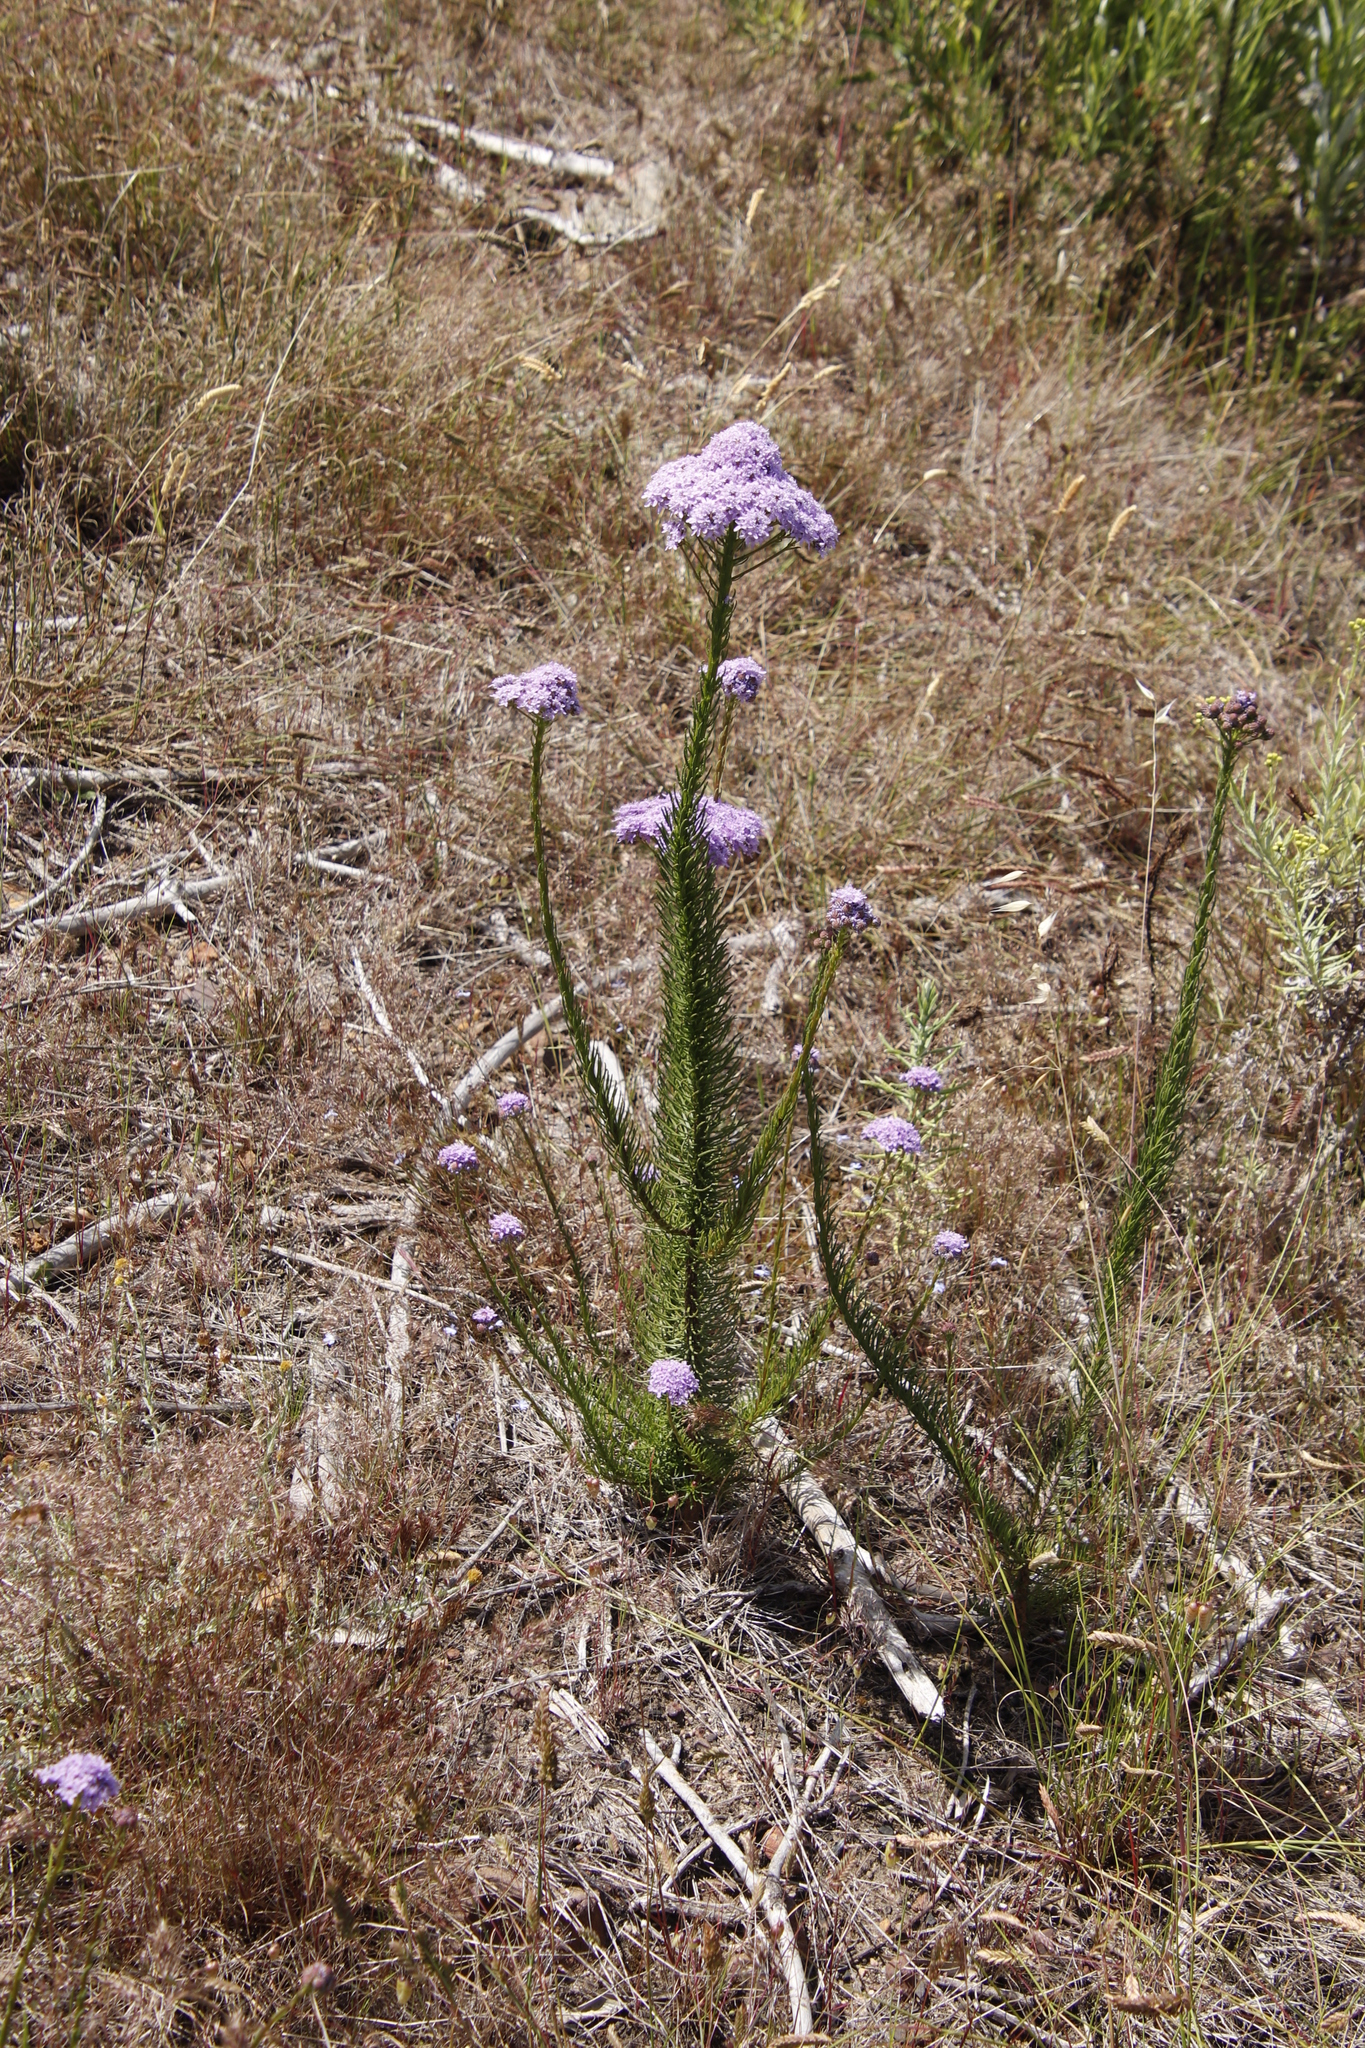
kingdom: Plantae
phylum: Tracheophyta
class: Magnoliopsida
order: Lamiales
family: Scrophulariaceae
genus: Pseudoselago
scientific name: Pseudoselago spuria
